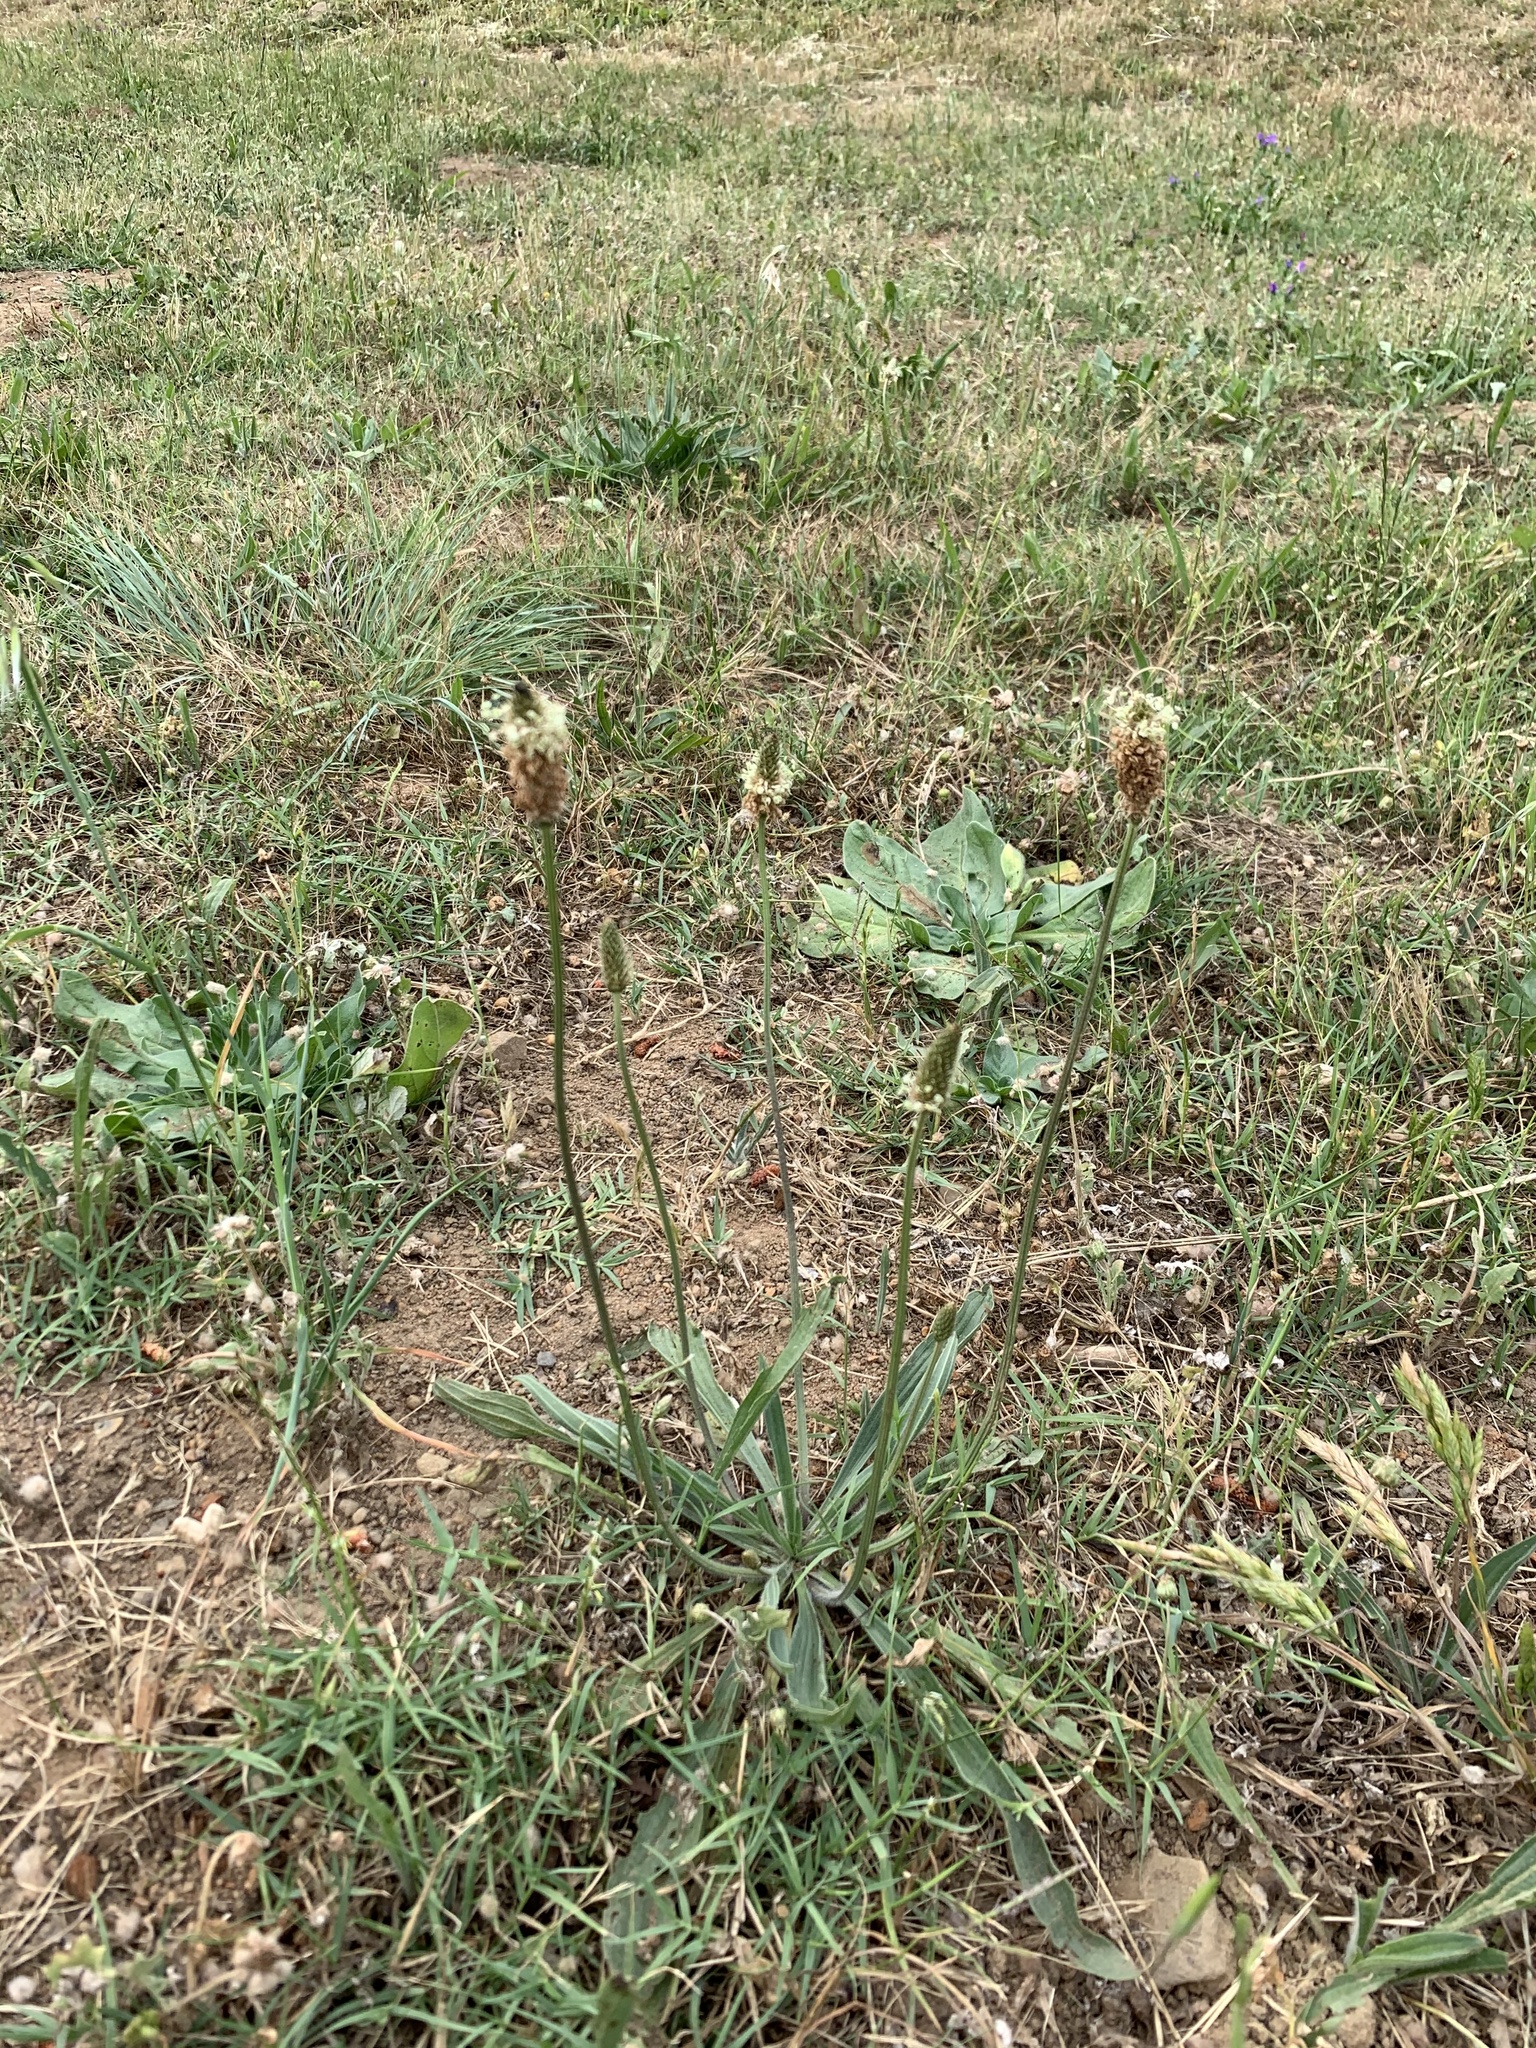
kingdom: Plantae
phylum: Tracheophyta
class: Magnoliopsida
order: Lamiales
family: Plantaginaceae
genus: Plantago
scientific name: Plantago lanceolata
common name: Ribwort plantain
